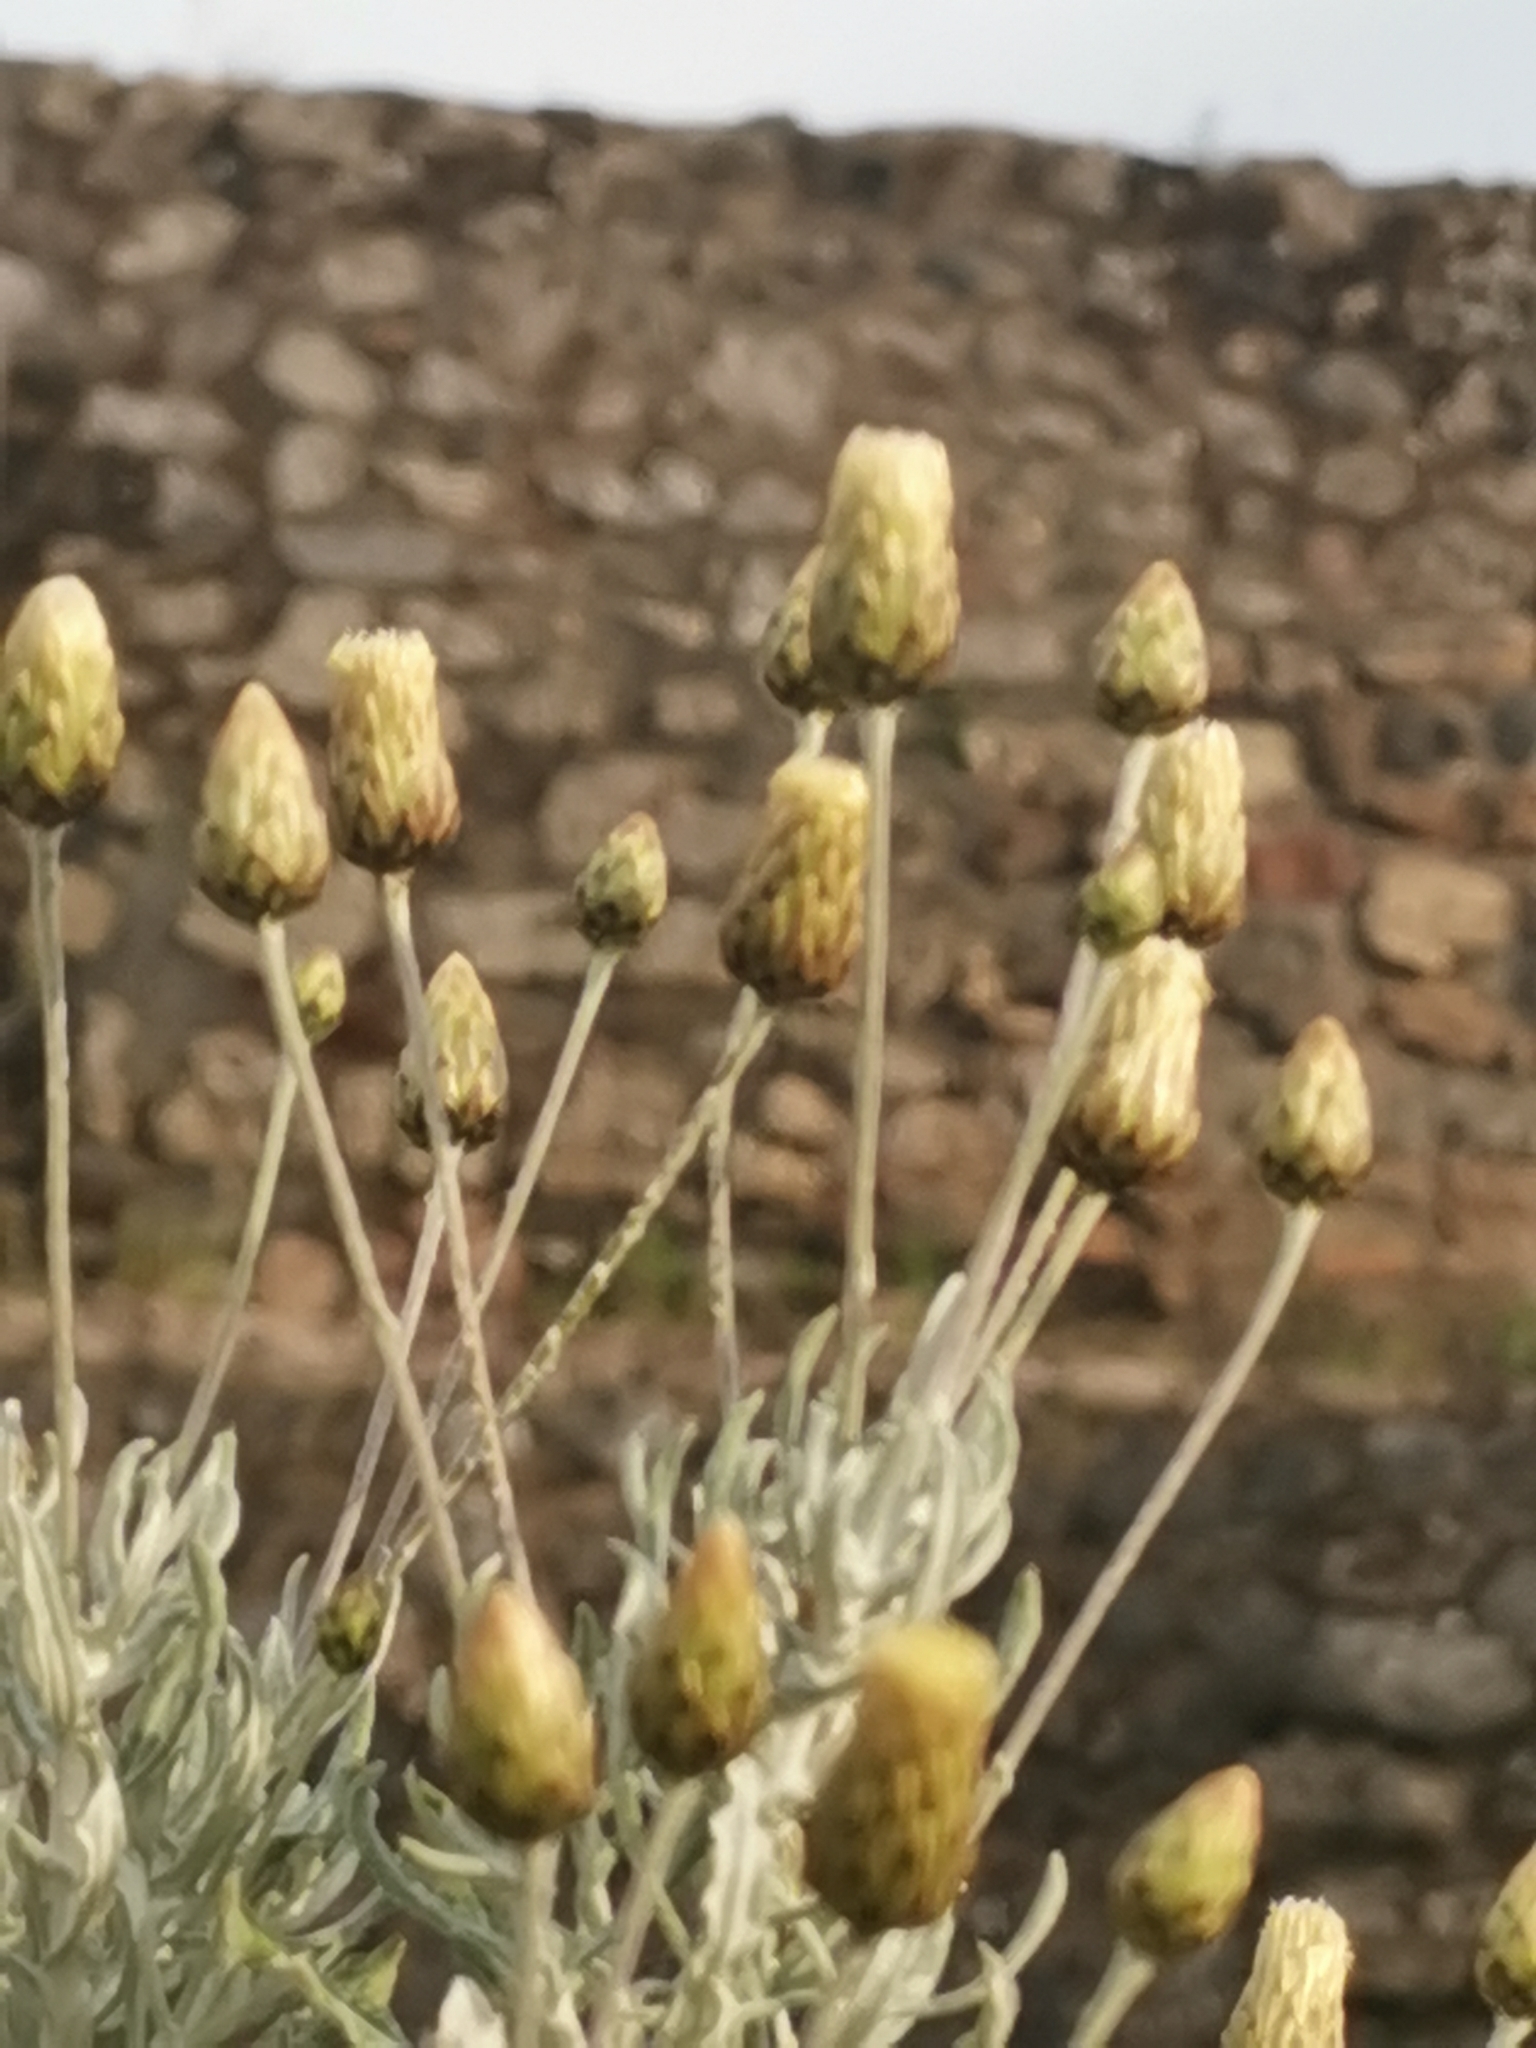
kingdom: Plantae
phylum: Tracheophyta
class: Magnoliopsida
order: Asterales
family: Asteraceae
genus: Phagnalon
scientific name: Phagnalon rupestre
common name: Rock phagnalon
